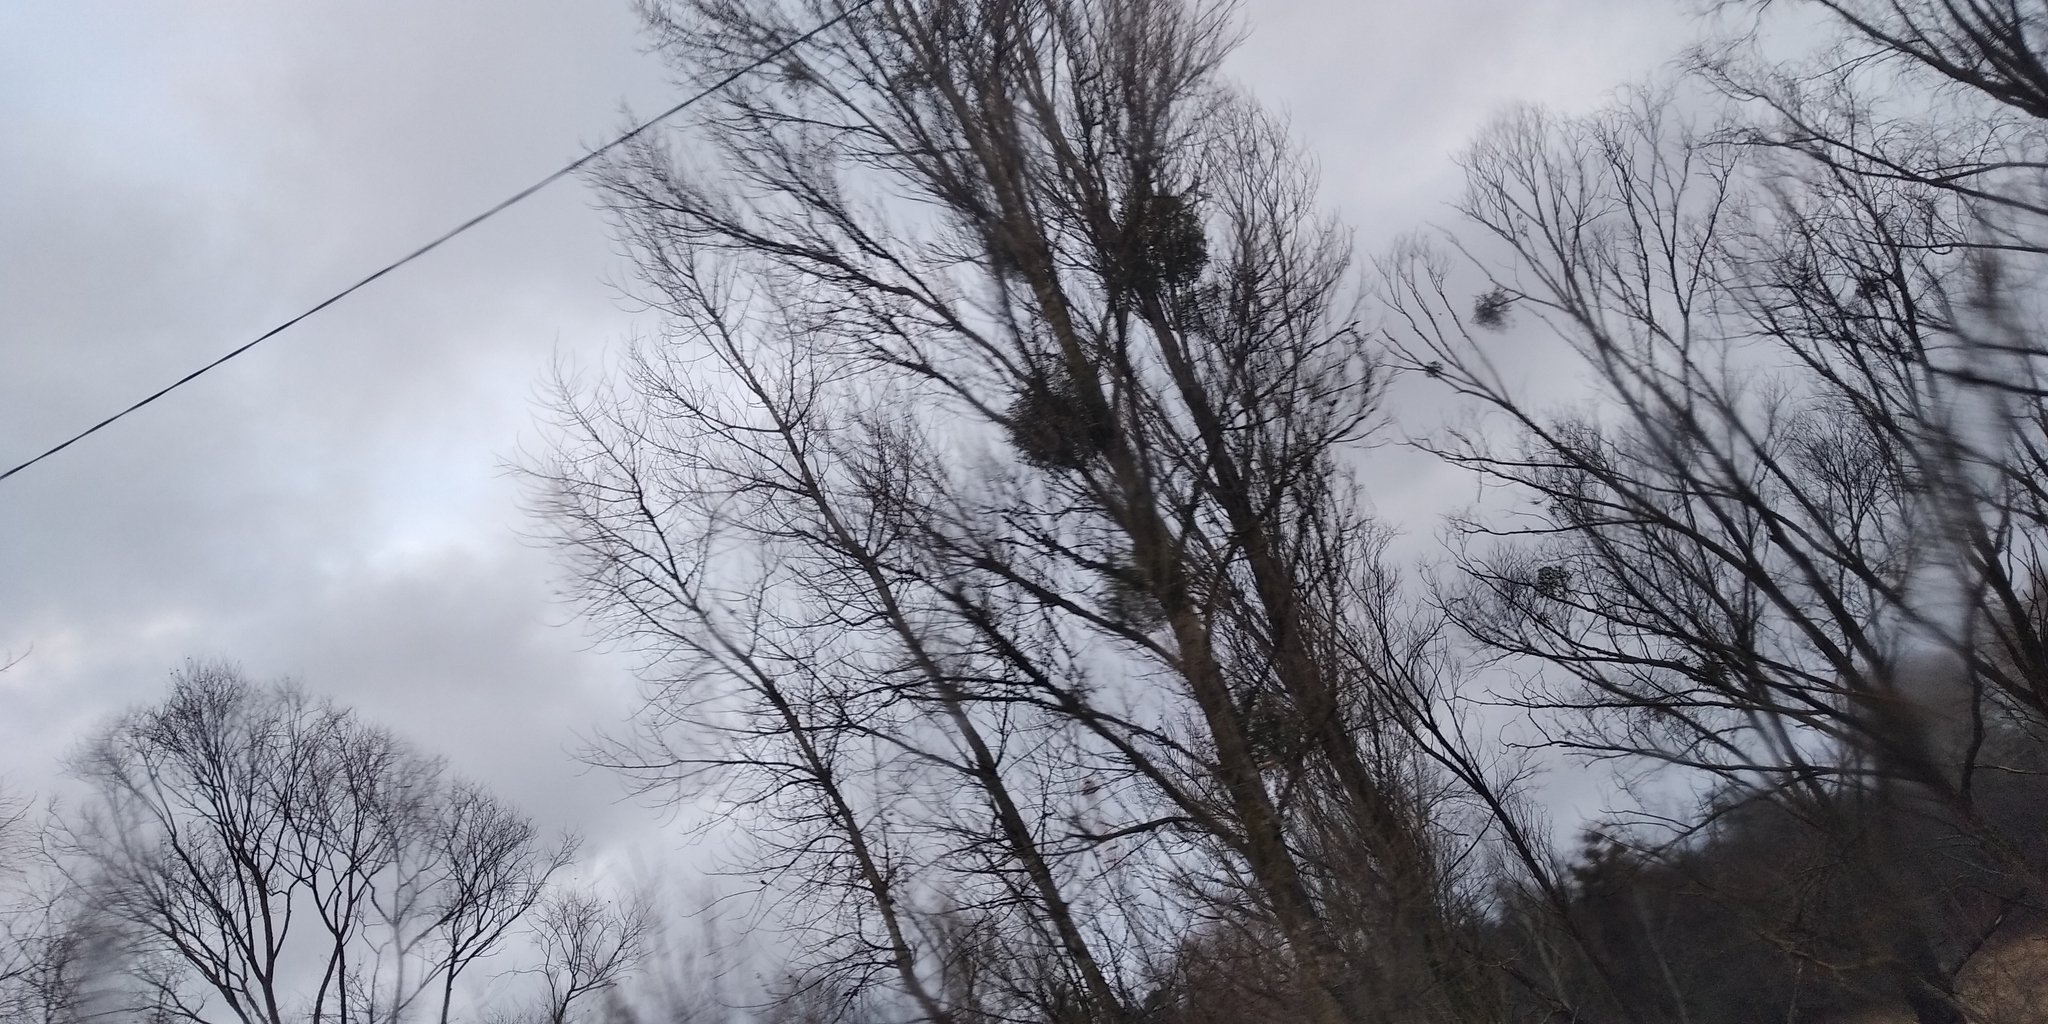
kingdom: Plantae
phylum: Tracheophyta
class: Magnoliopsida
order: Santalales
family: Viscaceae
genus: Viscum
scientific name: Viscum album
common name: Mistletoe
